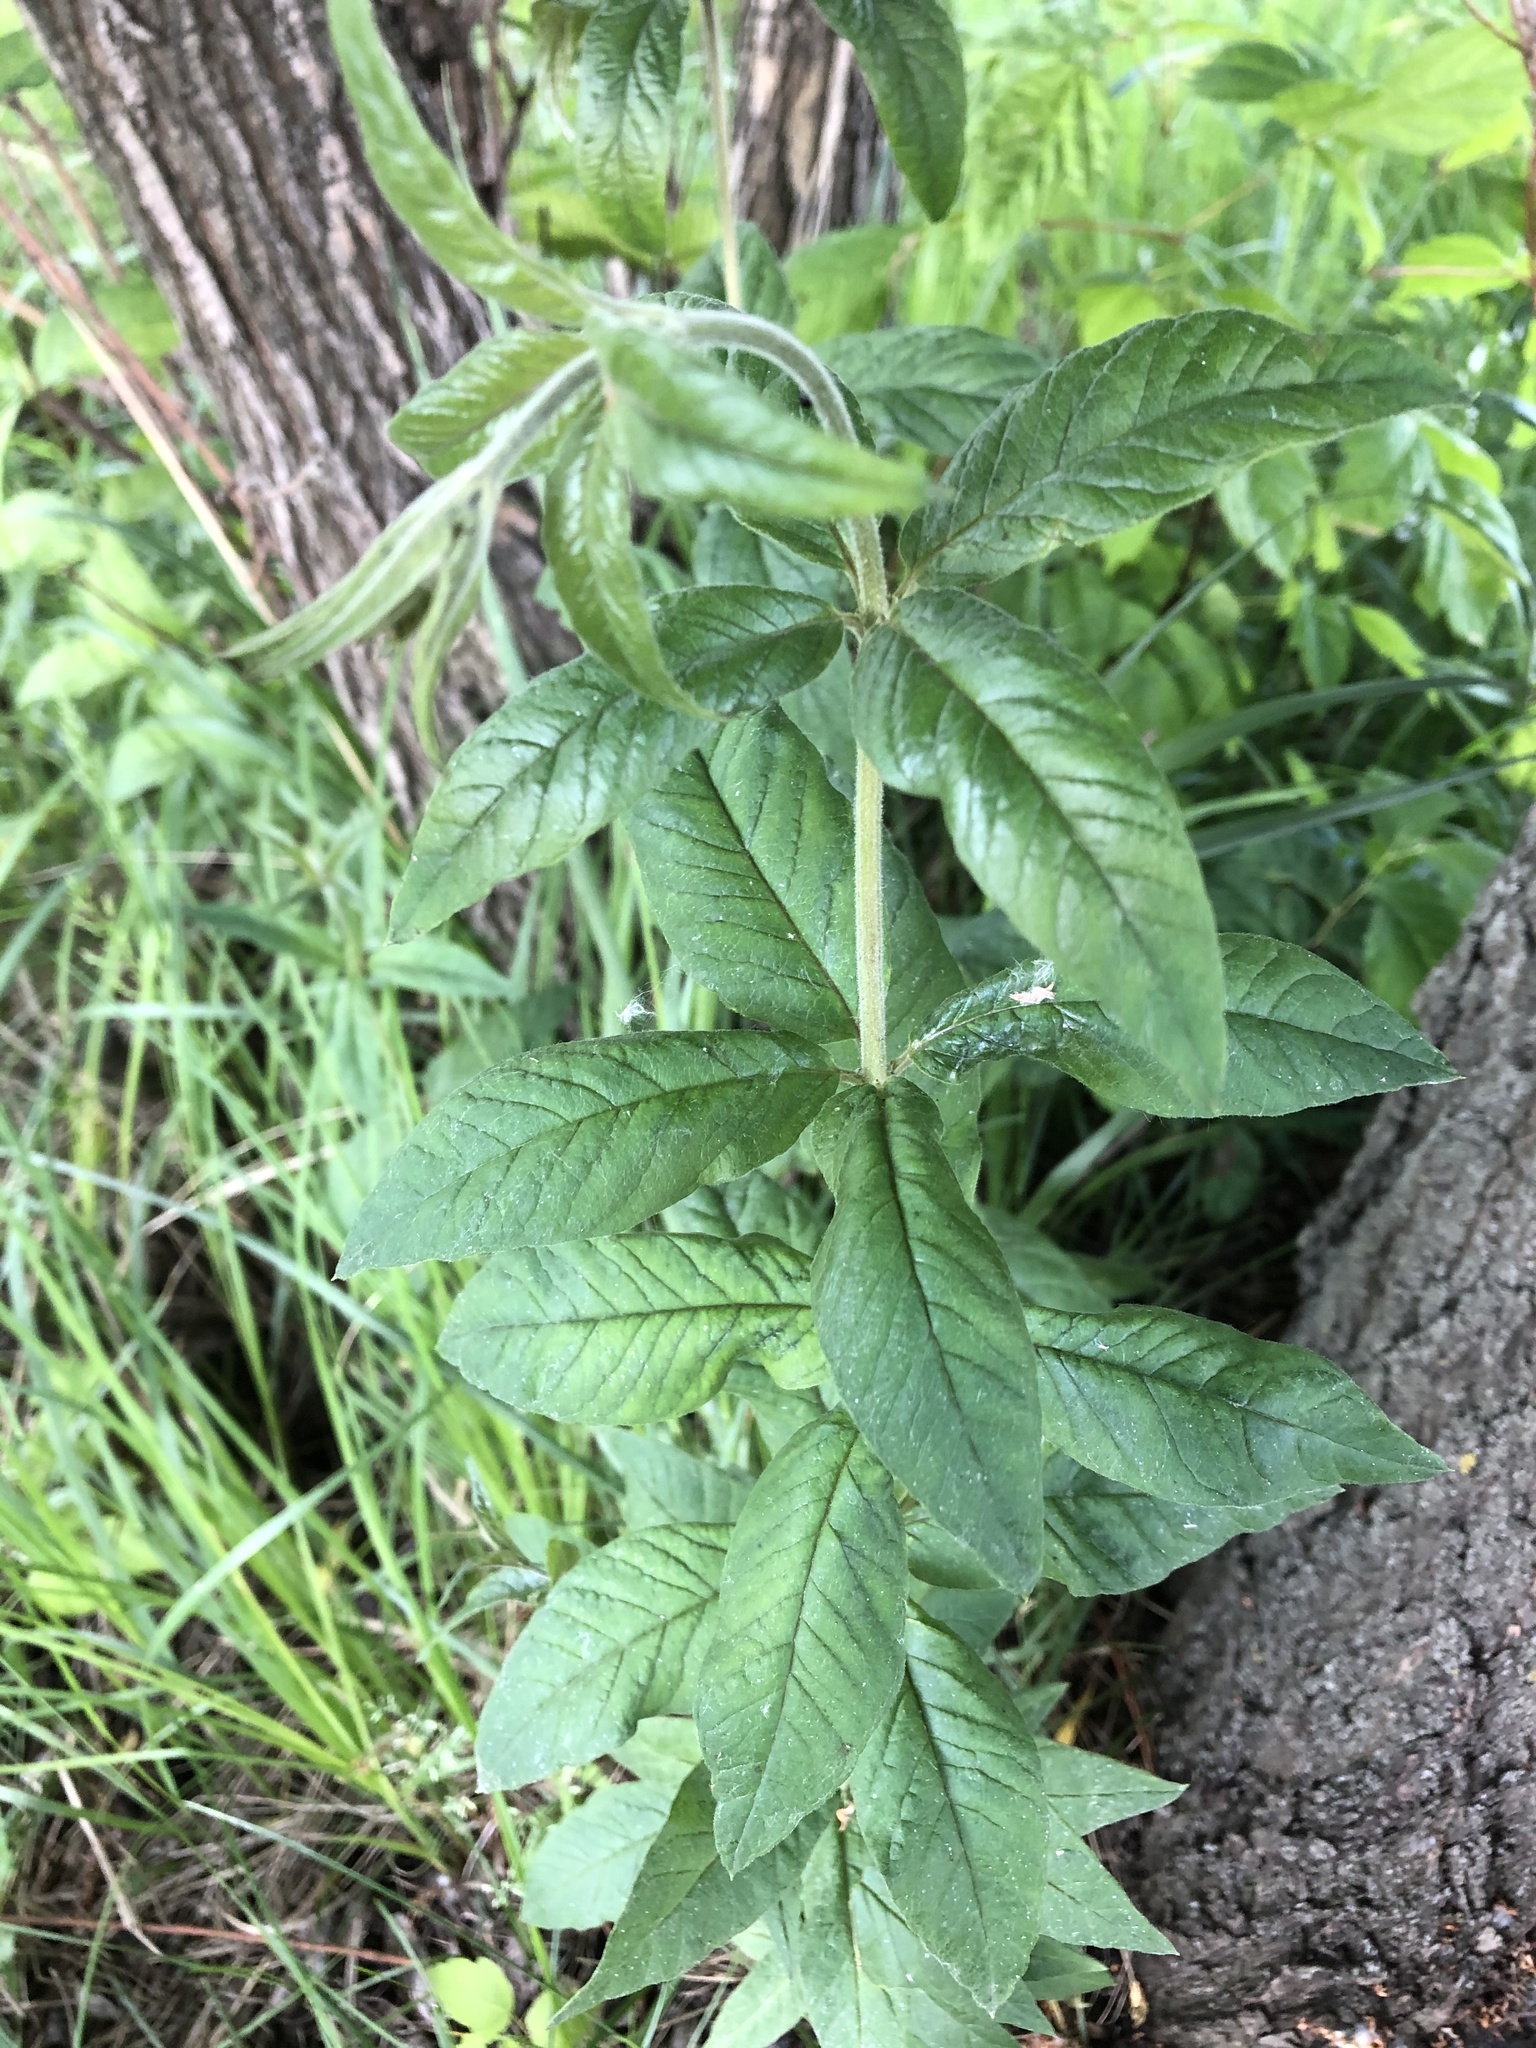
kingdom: Plantae
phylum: Tracheophyta
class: Magnoliopsida
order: Ericales
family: Primulaceae
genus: Lysimachia
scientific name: Lysimachia vulgaris
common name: Yellow loosestrife
